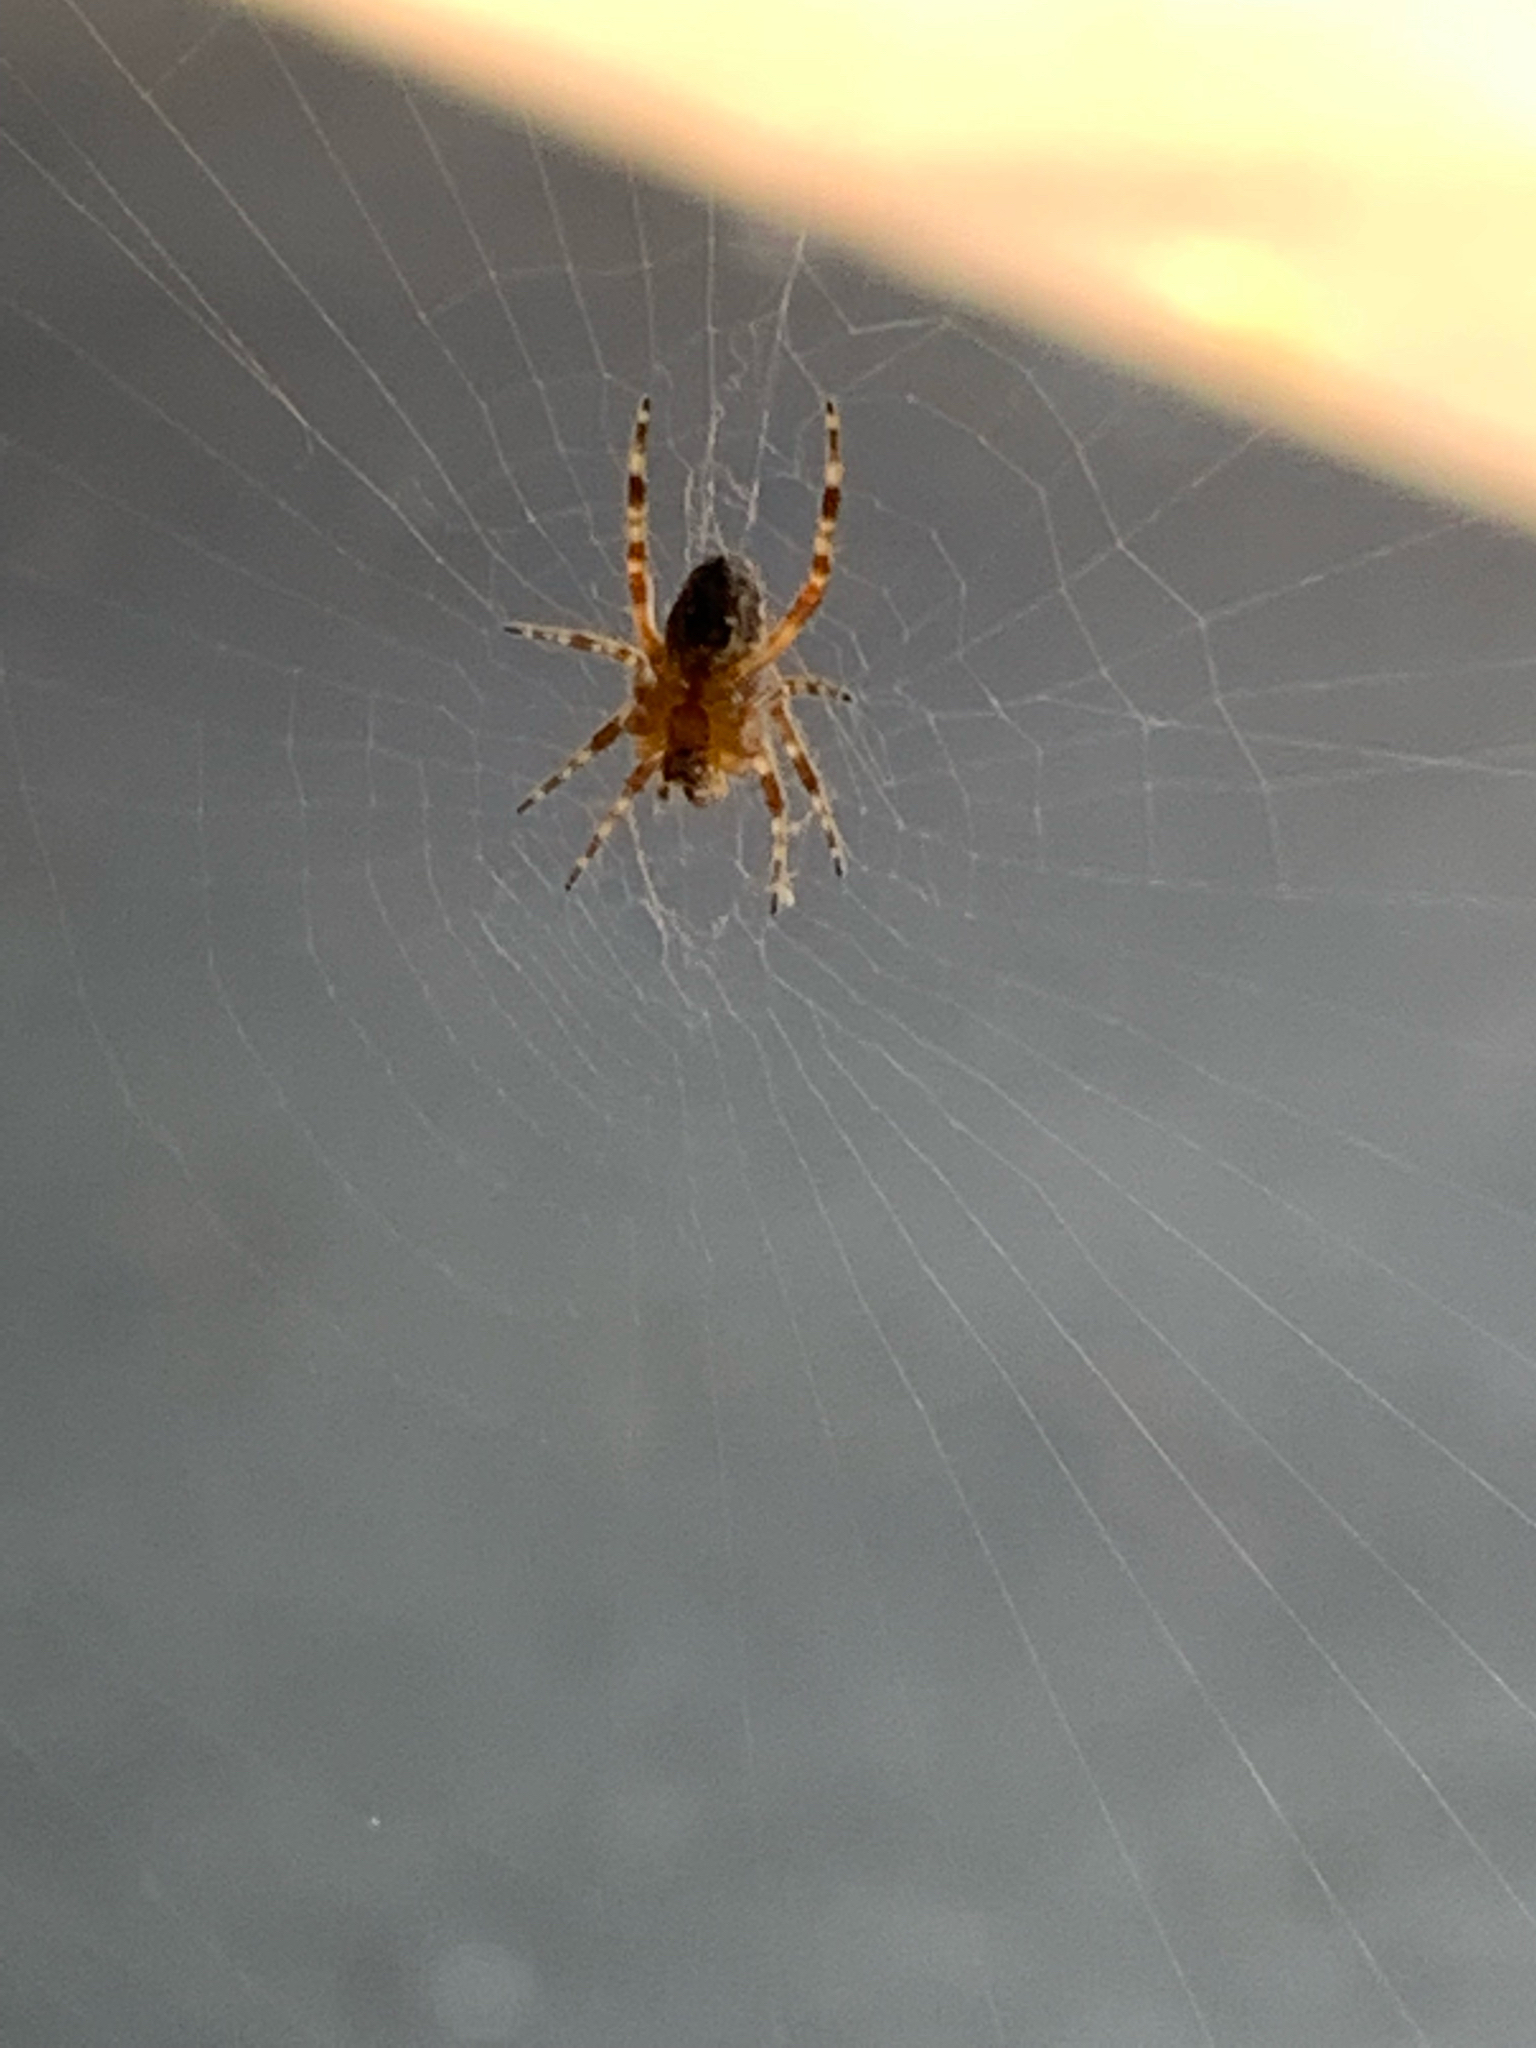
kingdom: Animalia
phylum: Arthropoda
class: Arachnida
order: Araneae
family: Araneidae
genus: Araneus
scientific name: Araneus diadematus
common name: Cross orbweaver
